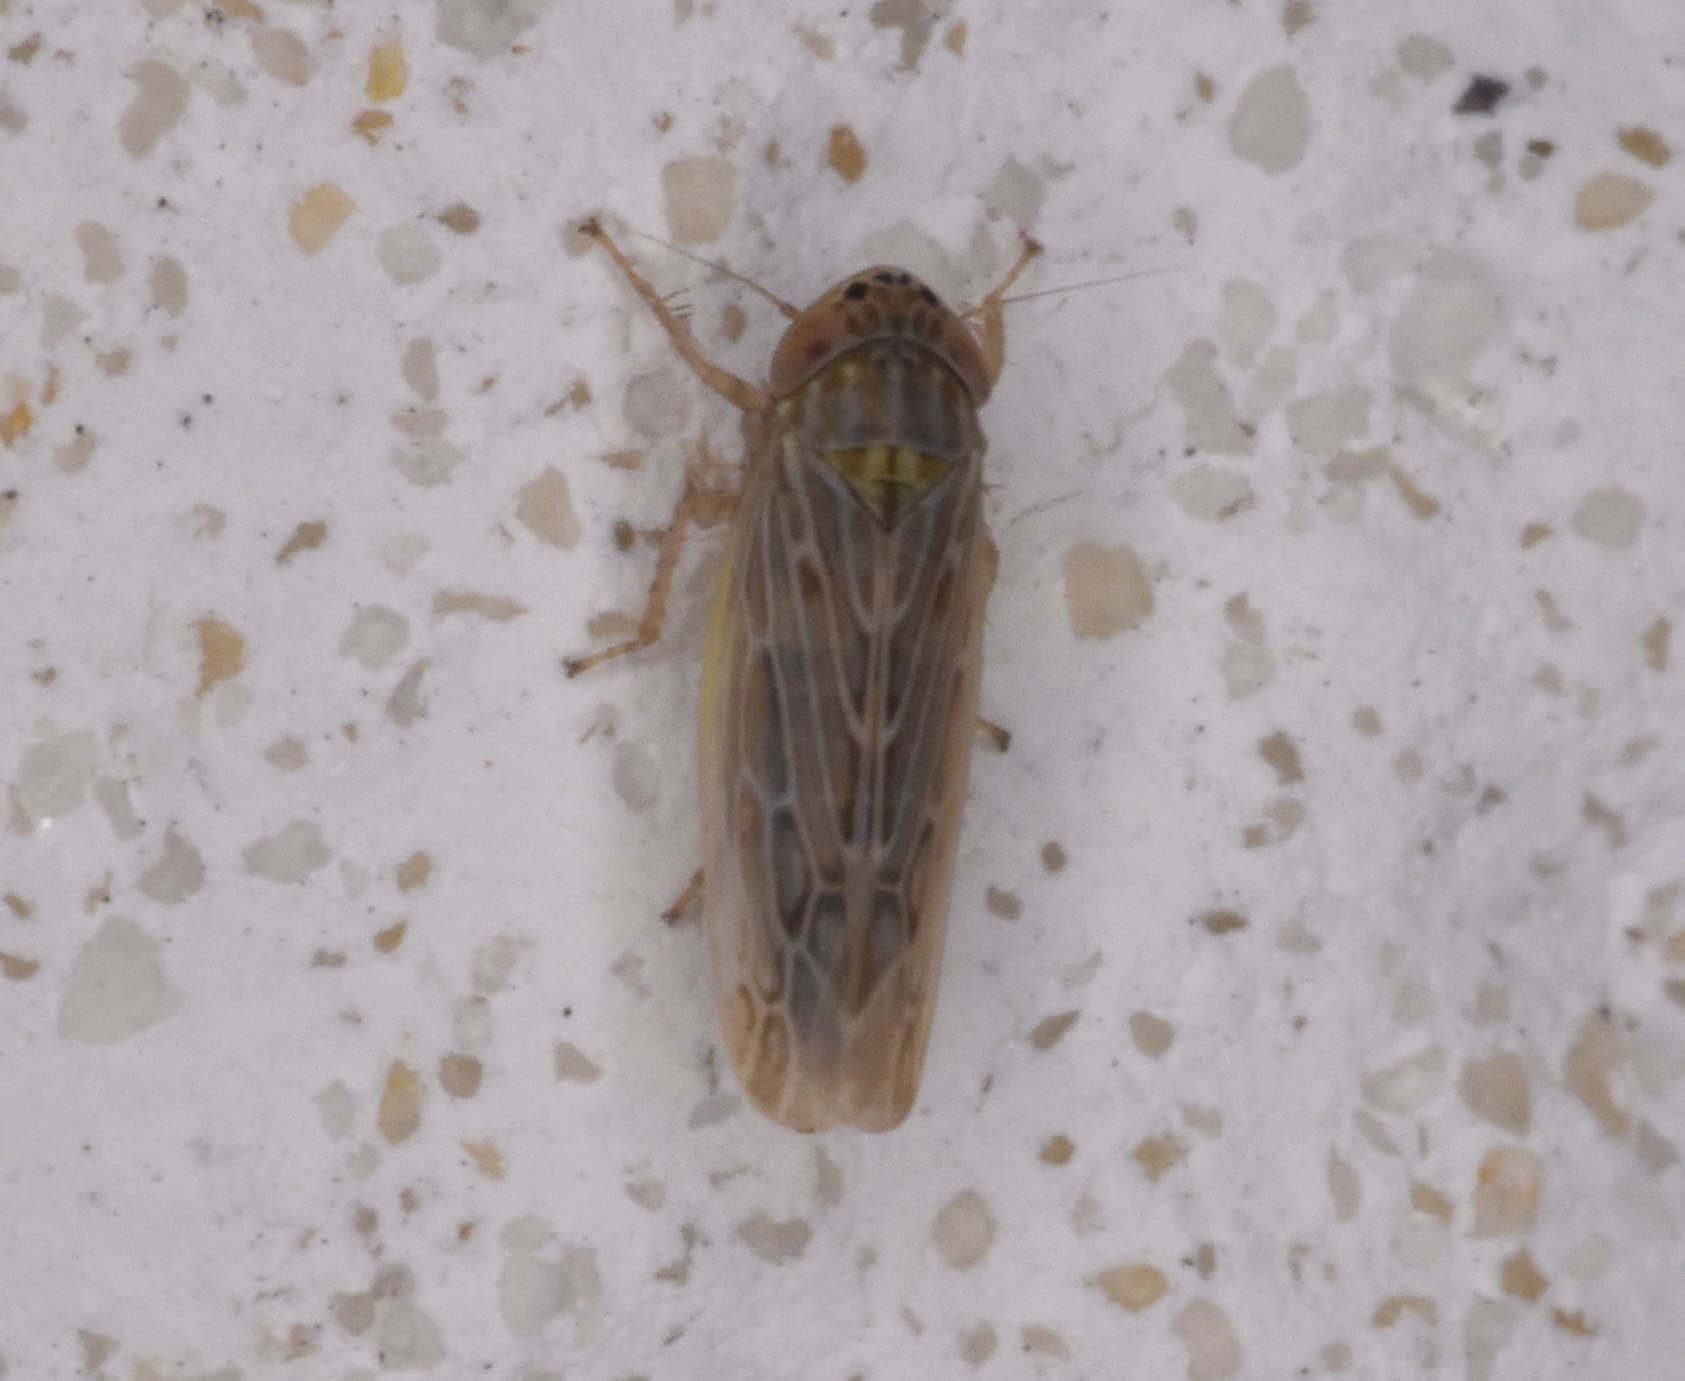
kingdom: Animalia
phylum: Arthropoda
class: Insecta
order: Hemiptera
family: Cicadellidae
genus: Graminella
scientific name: Graminella sonora
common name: Lesser lawn leafhopper
